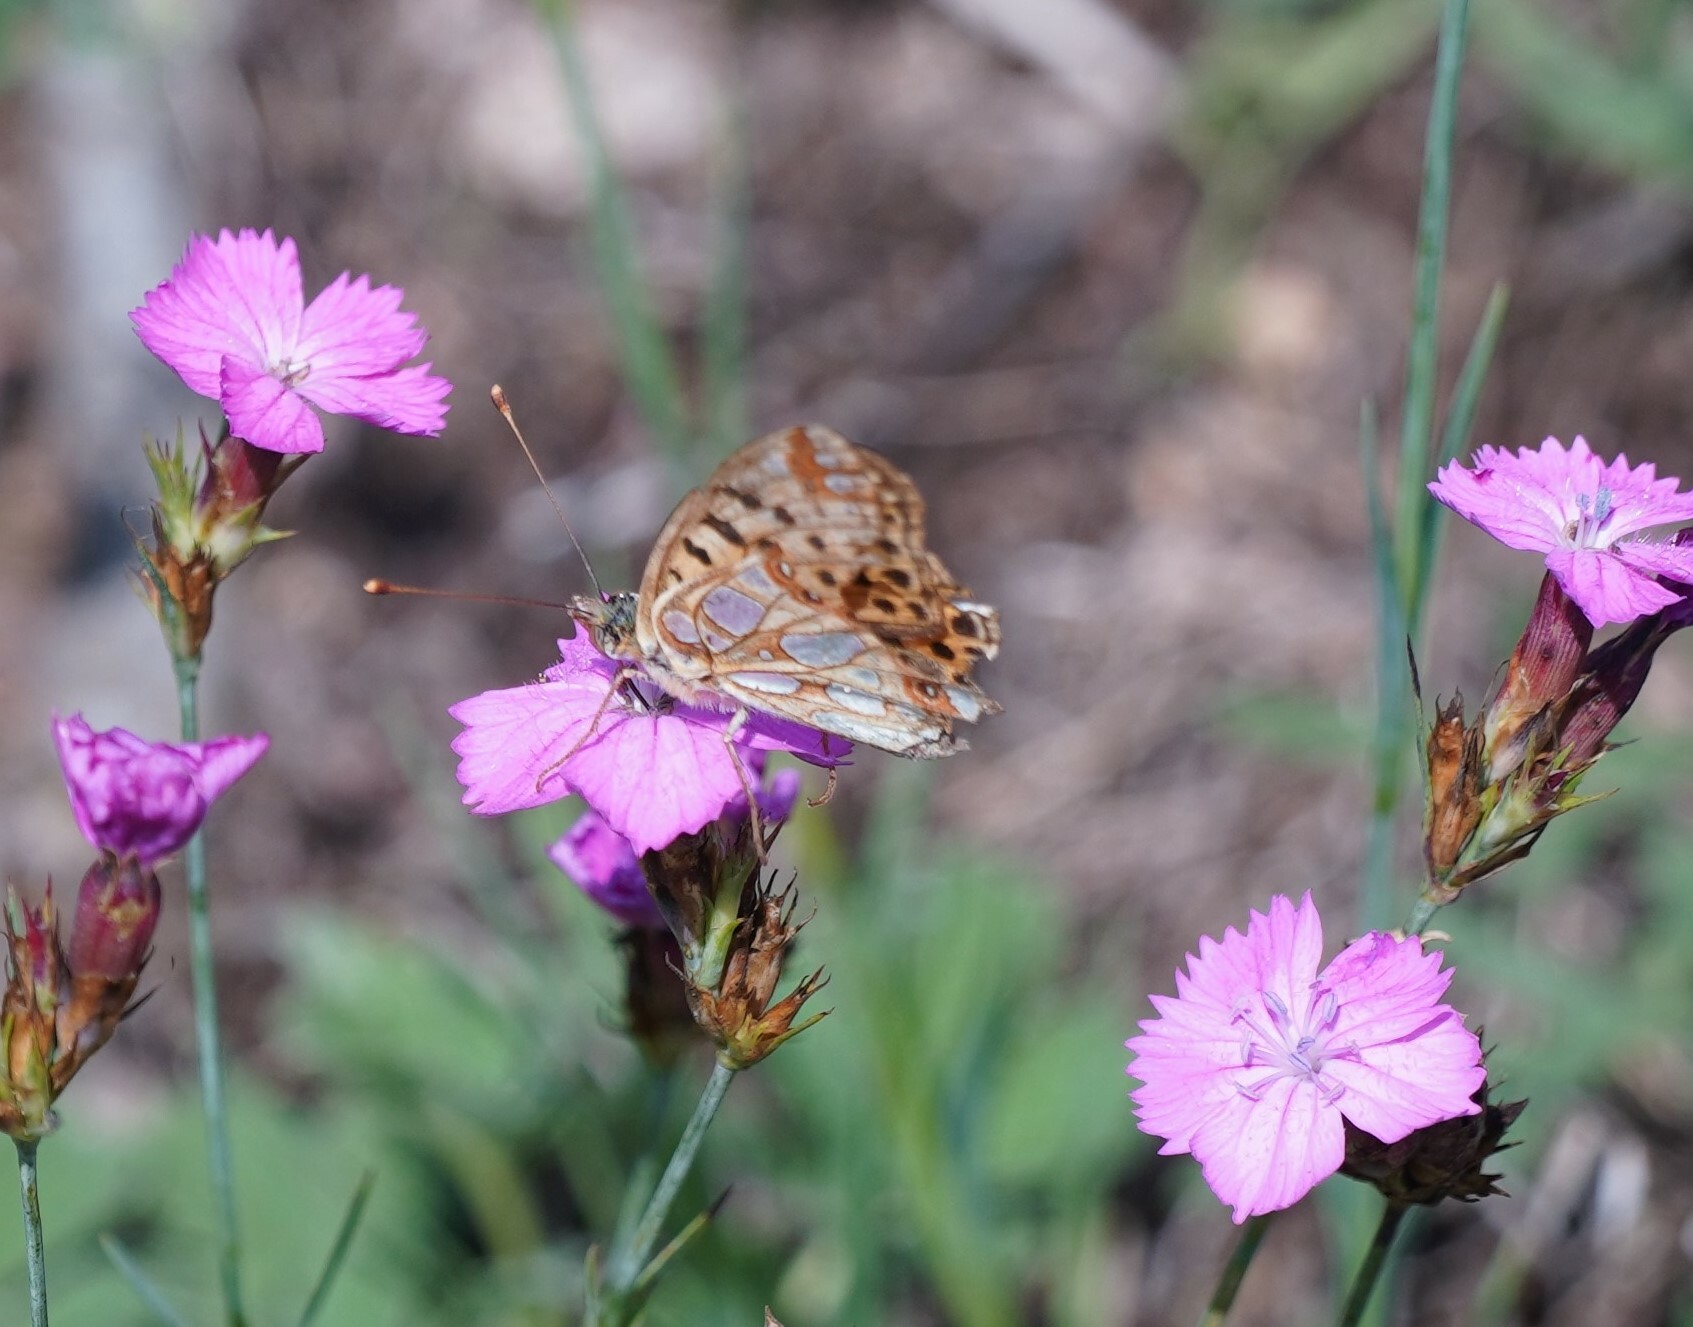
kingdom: Animalia
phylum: Arthropoda
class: Insecta
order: Lepidoptera
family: Nymphalidae
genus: Issoria
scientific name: Issoria lathonia
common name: Queen of spain fritillary
